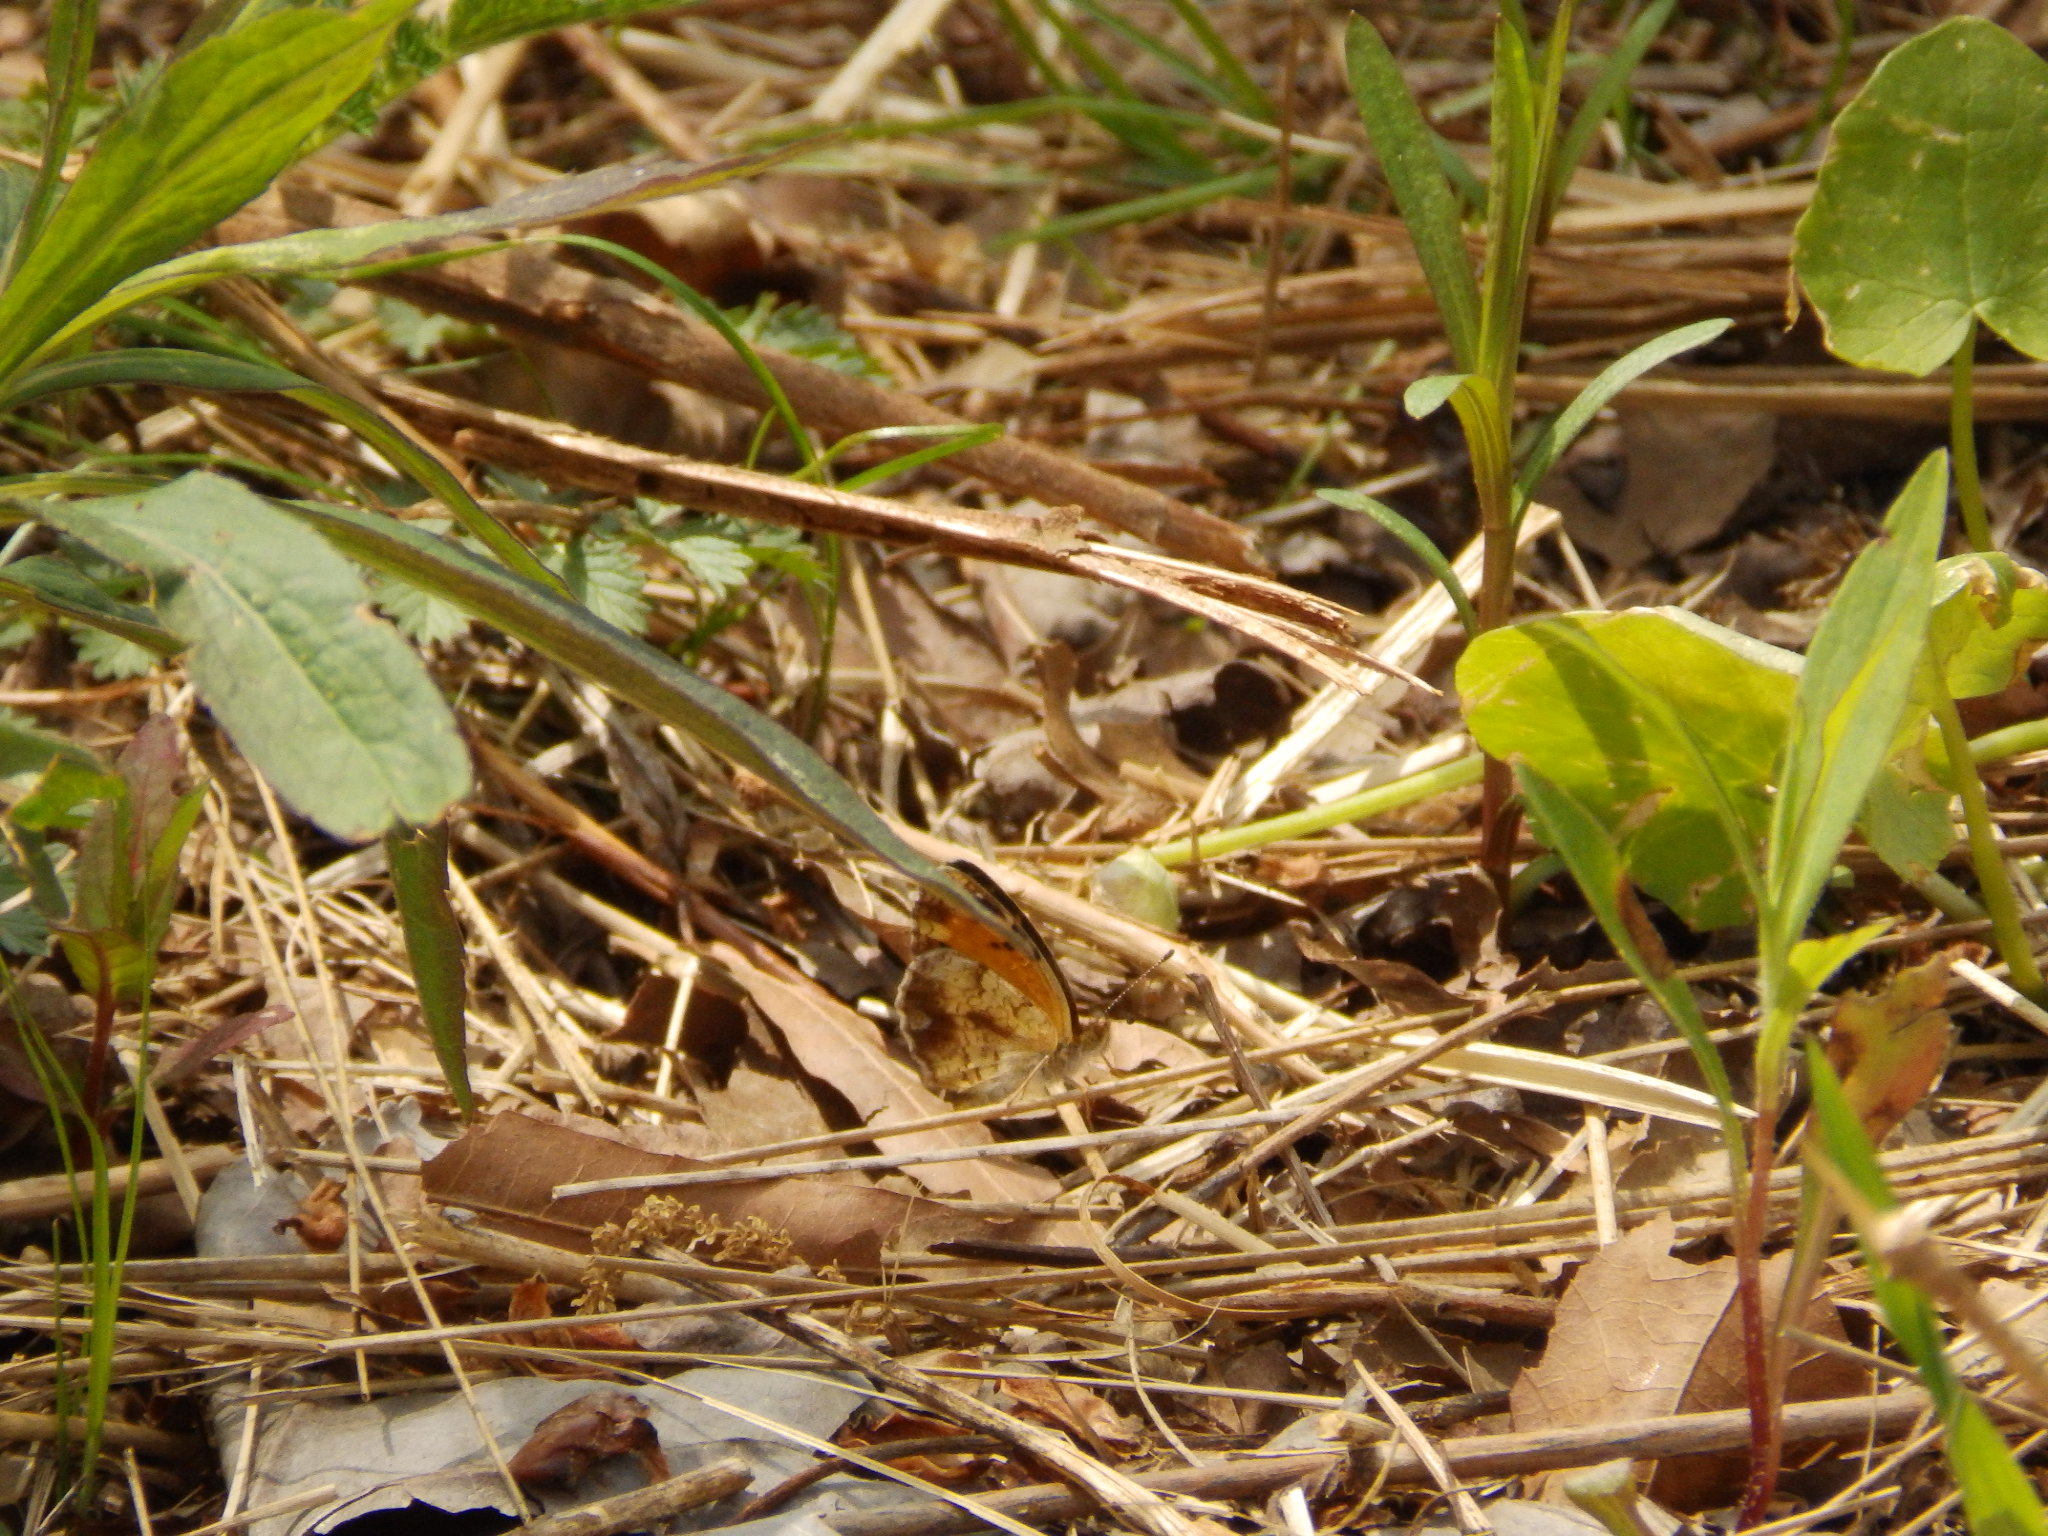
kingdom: Animalia
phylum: Arthropoda
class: Insecta
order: Lepidoptera
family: Nymphalidae
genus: Phyciodes
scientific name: Phyciodes tharos
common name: Pearl crescent
